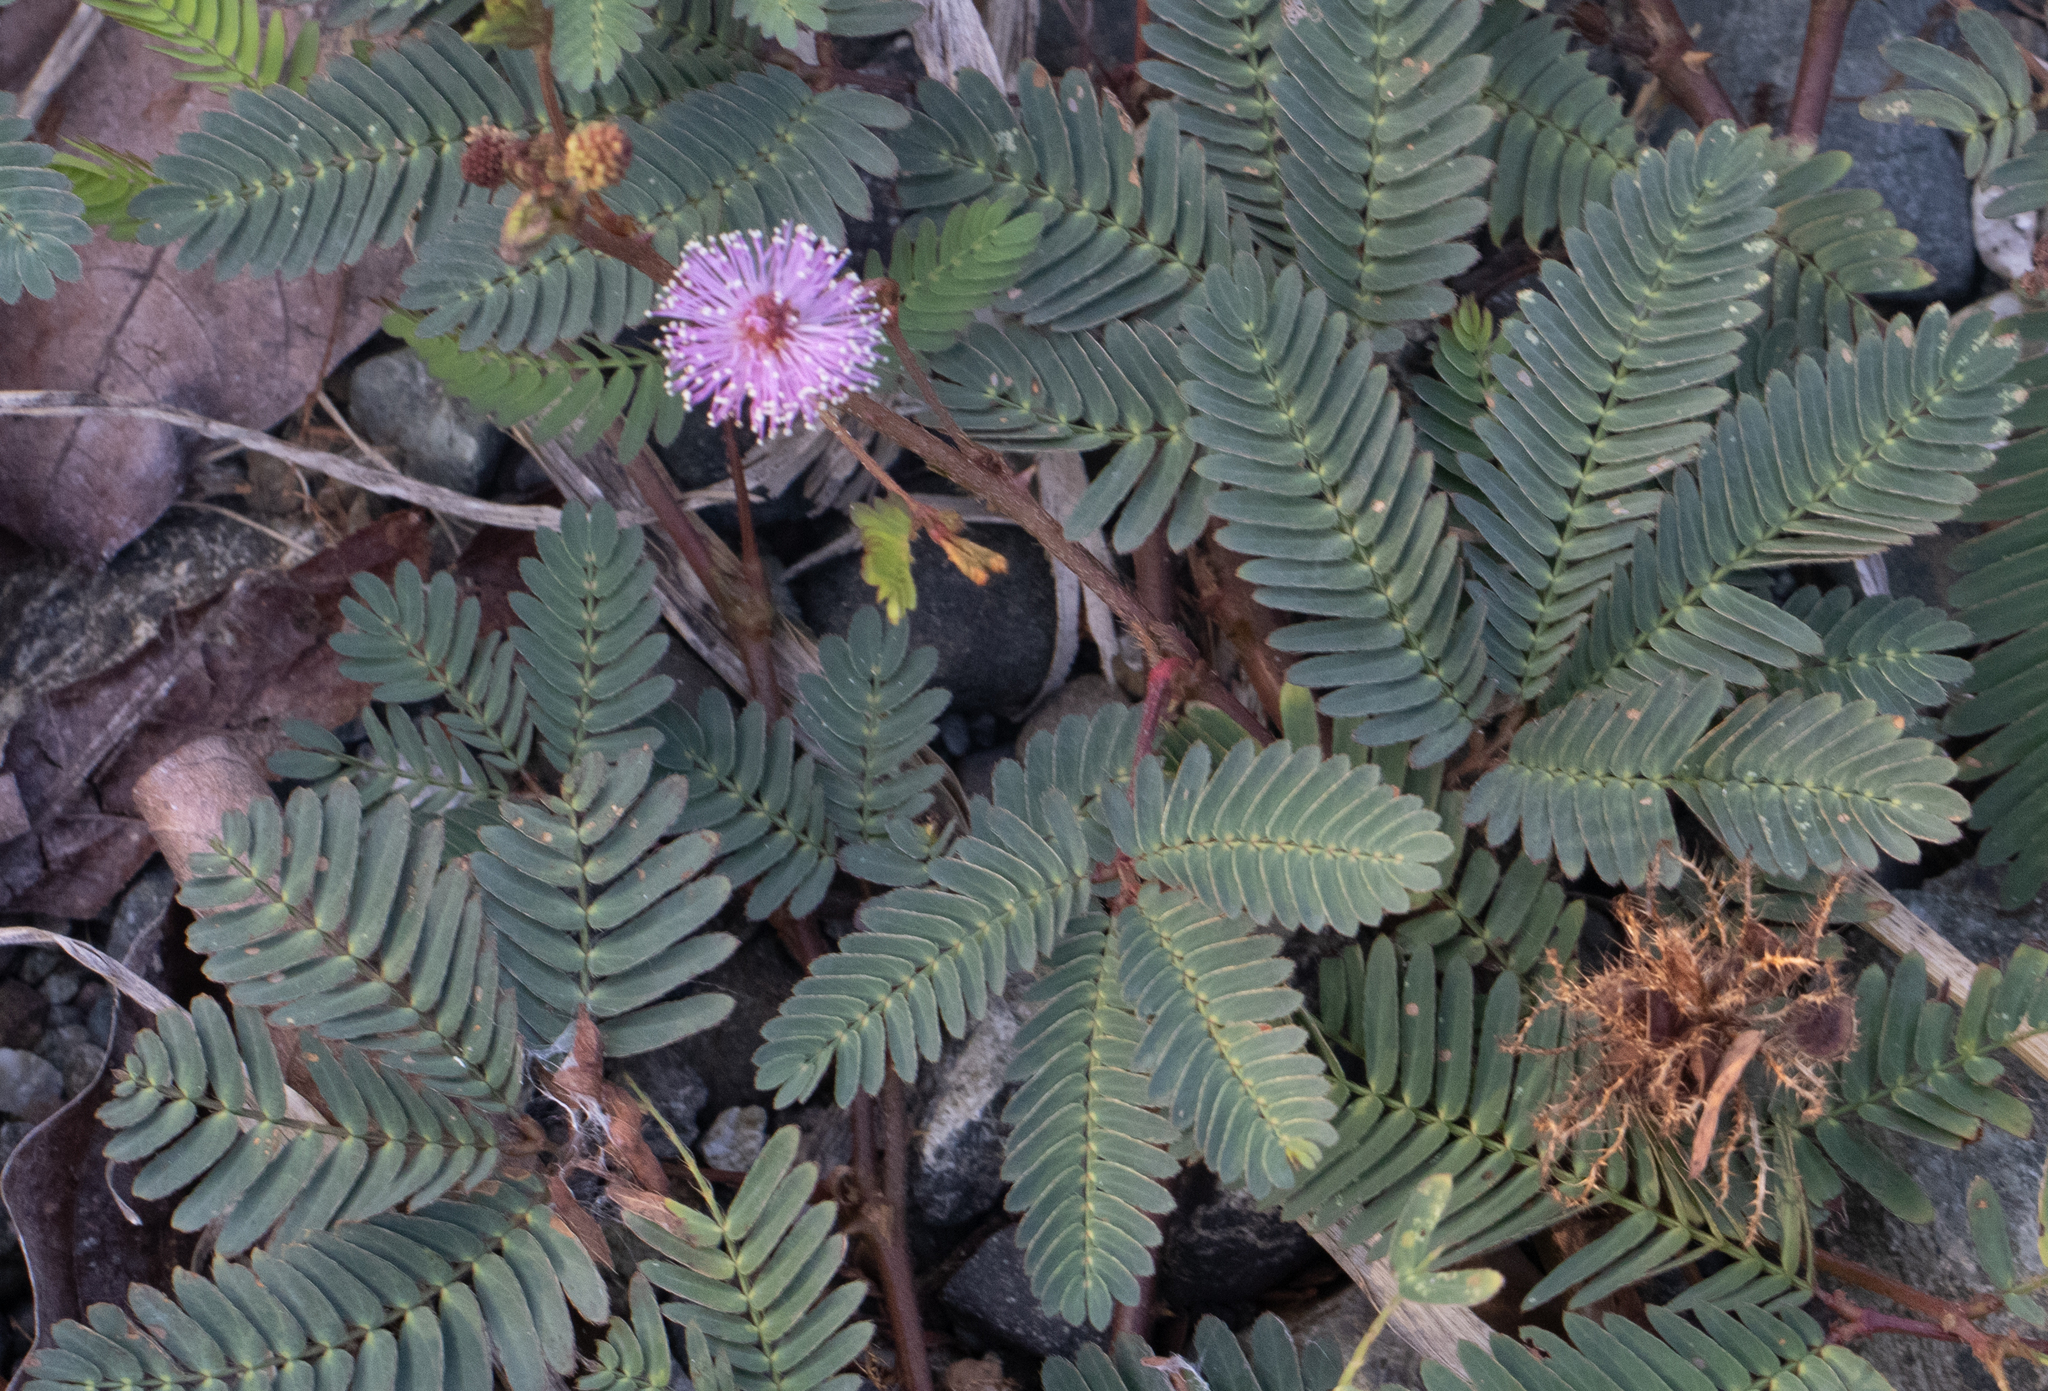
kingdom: Plantae
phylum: Tracheophyta
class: Magnoliopsida
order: Fabales
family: Fabaceae
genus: Mimosa
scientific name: Mimosa pudica
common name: Sensitive plant
